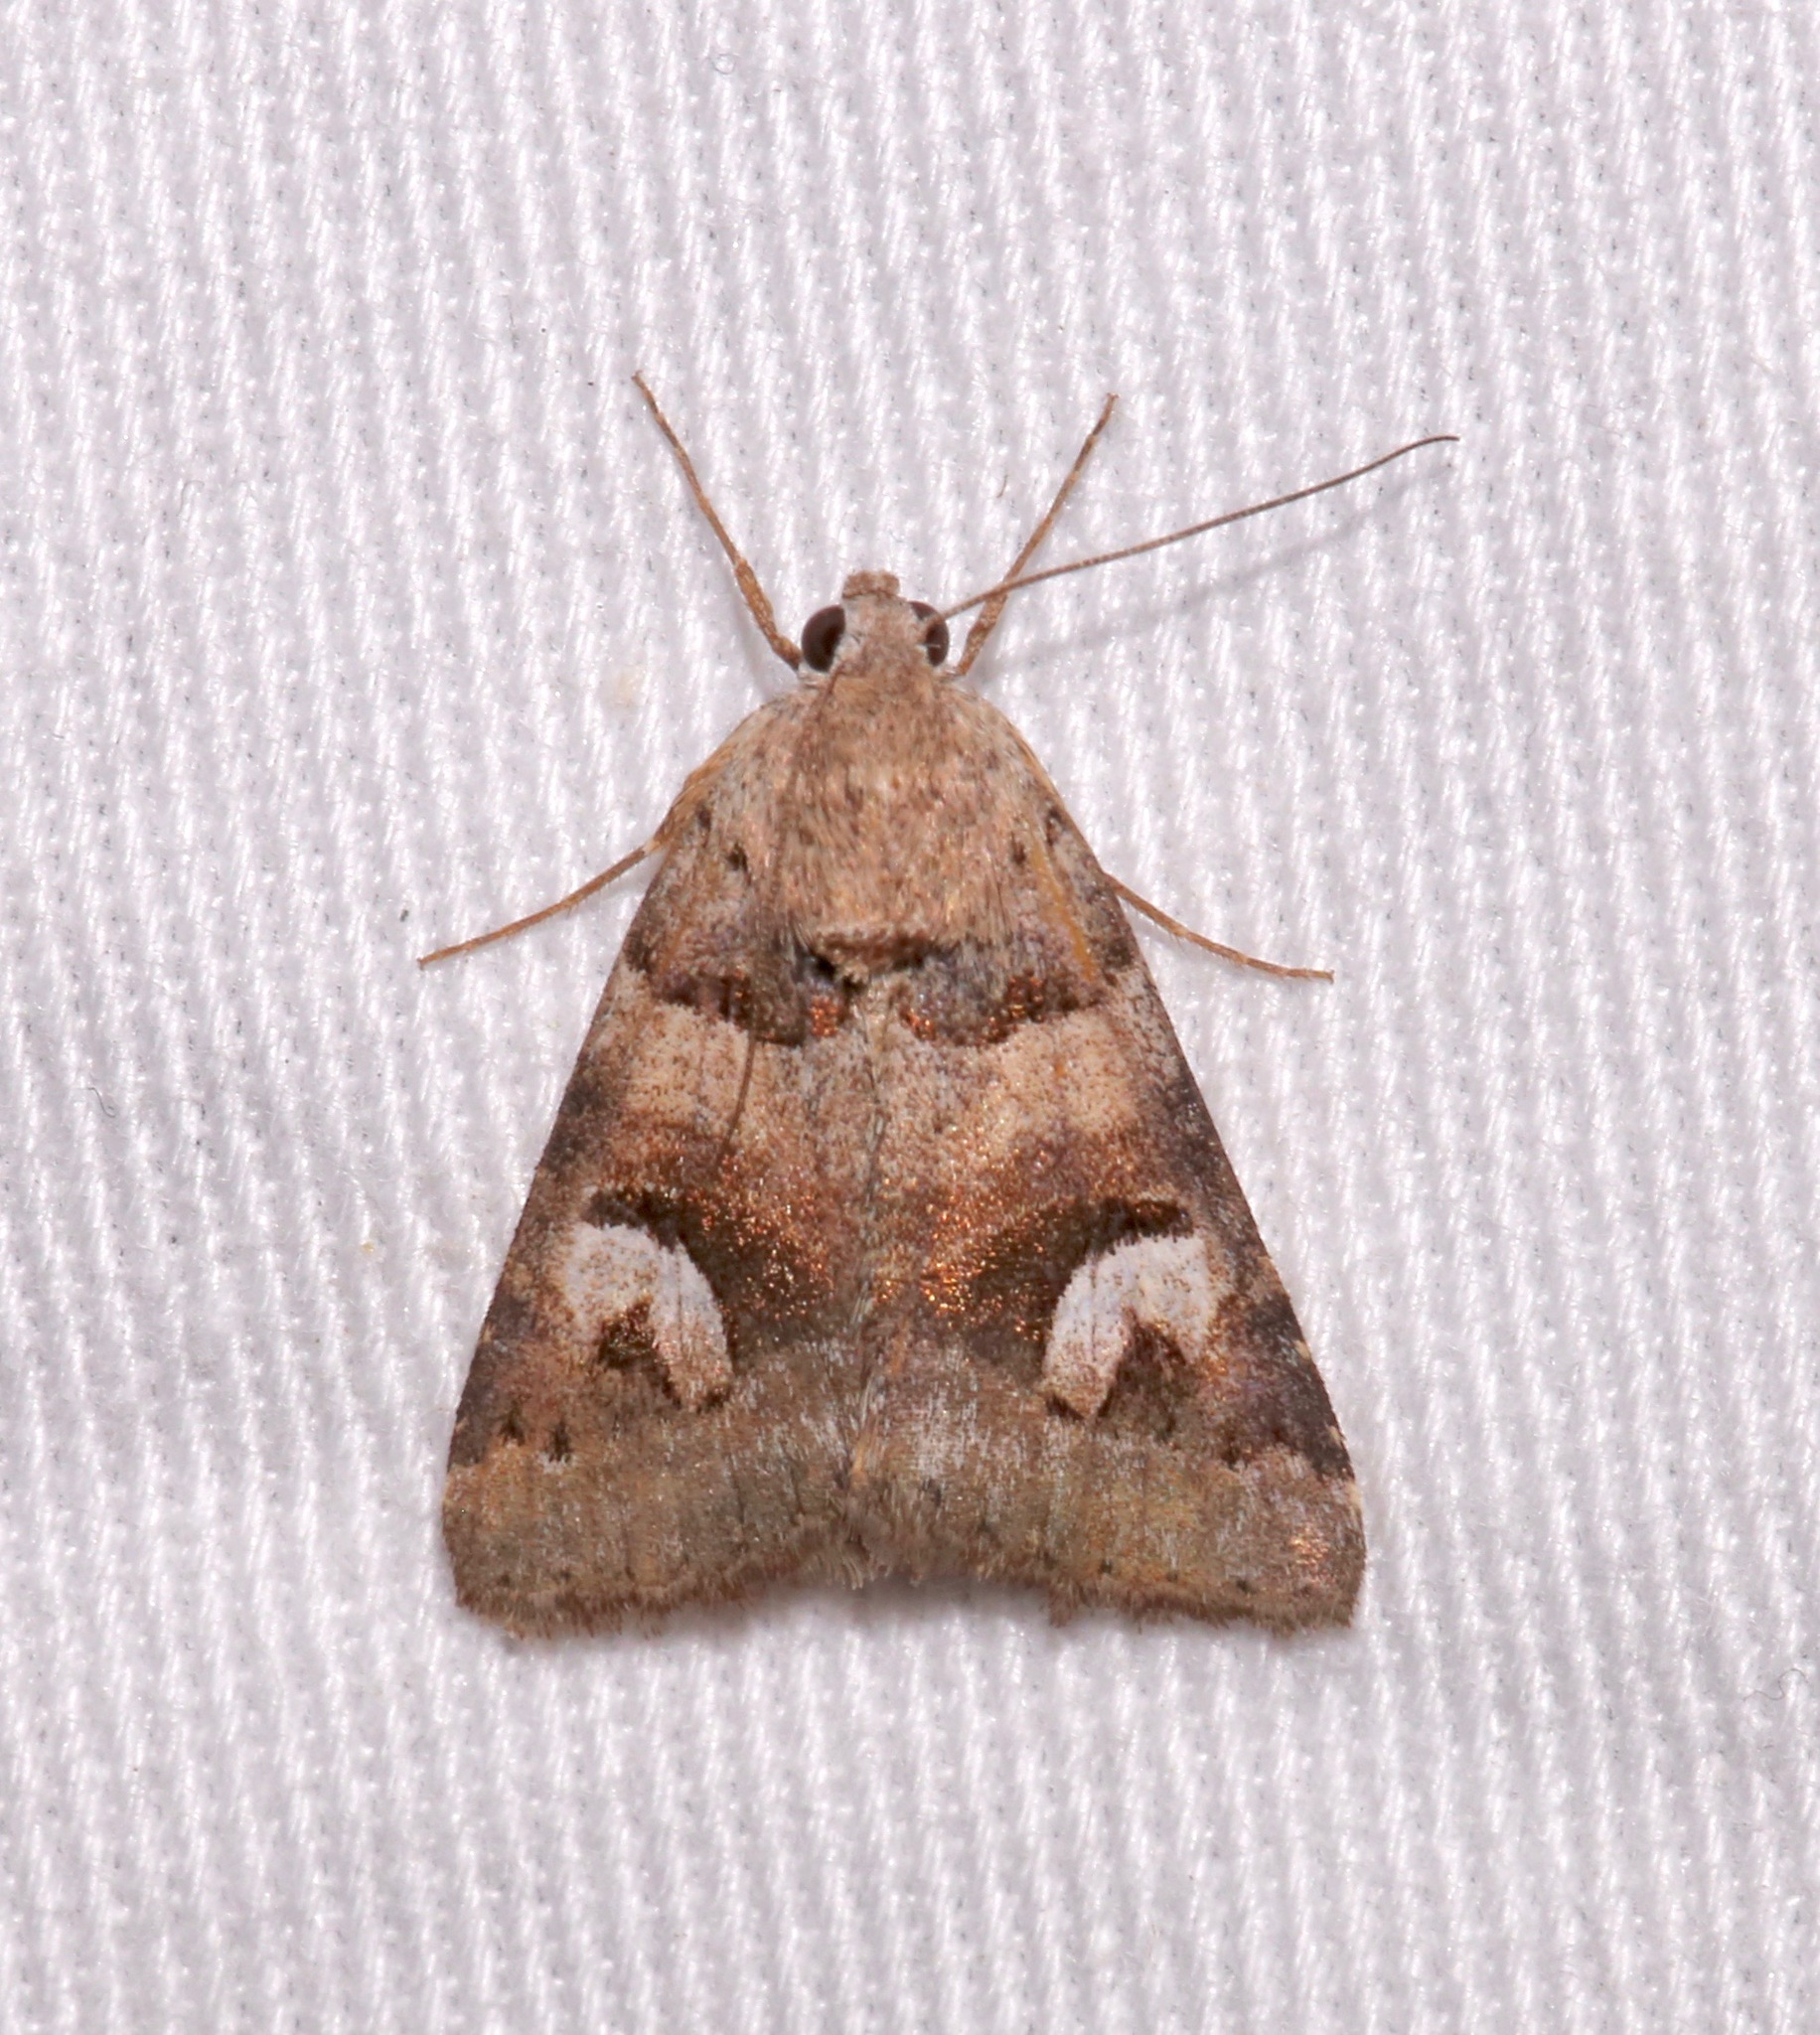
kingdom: Animalia
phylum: Arthropoda
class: Insecta
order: Lepidoptera
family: Erebidae
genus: Drasteria
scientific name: Drasteria perplexa
